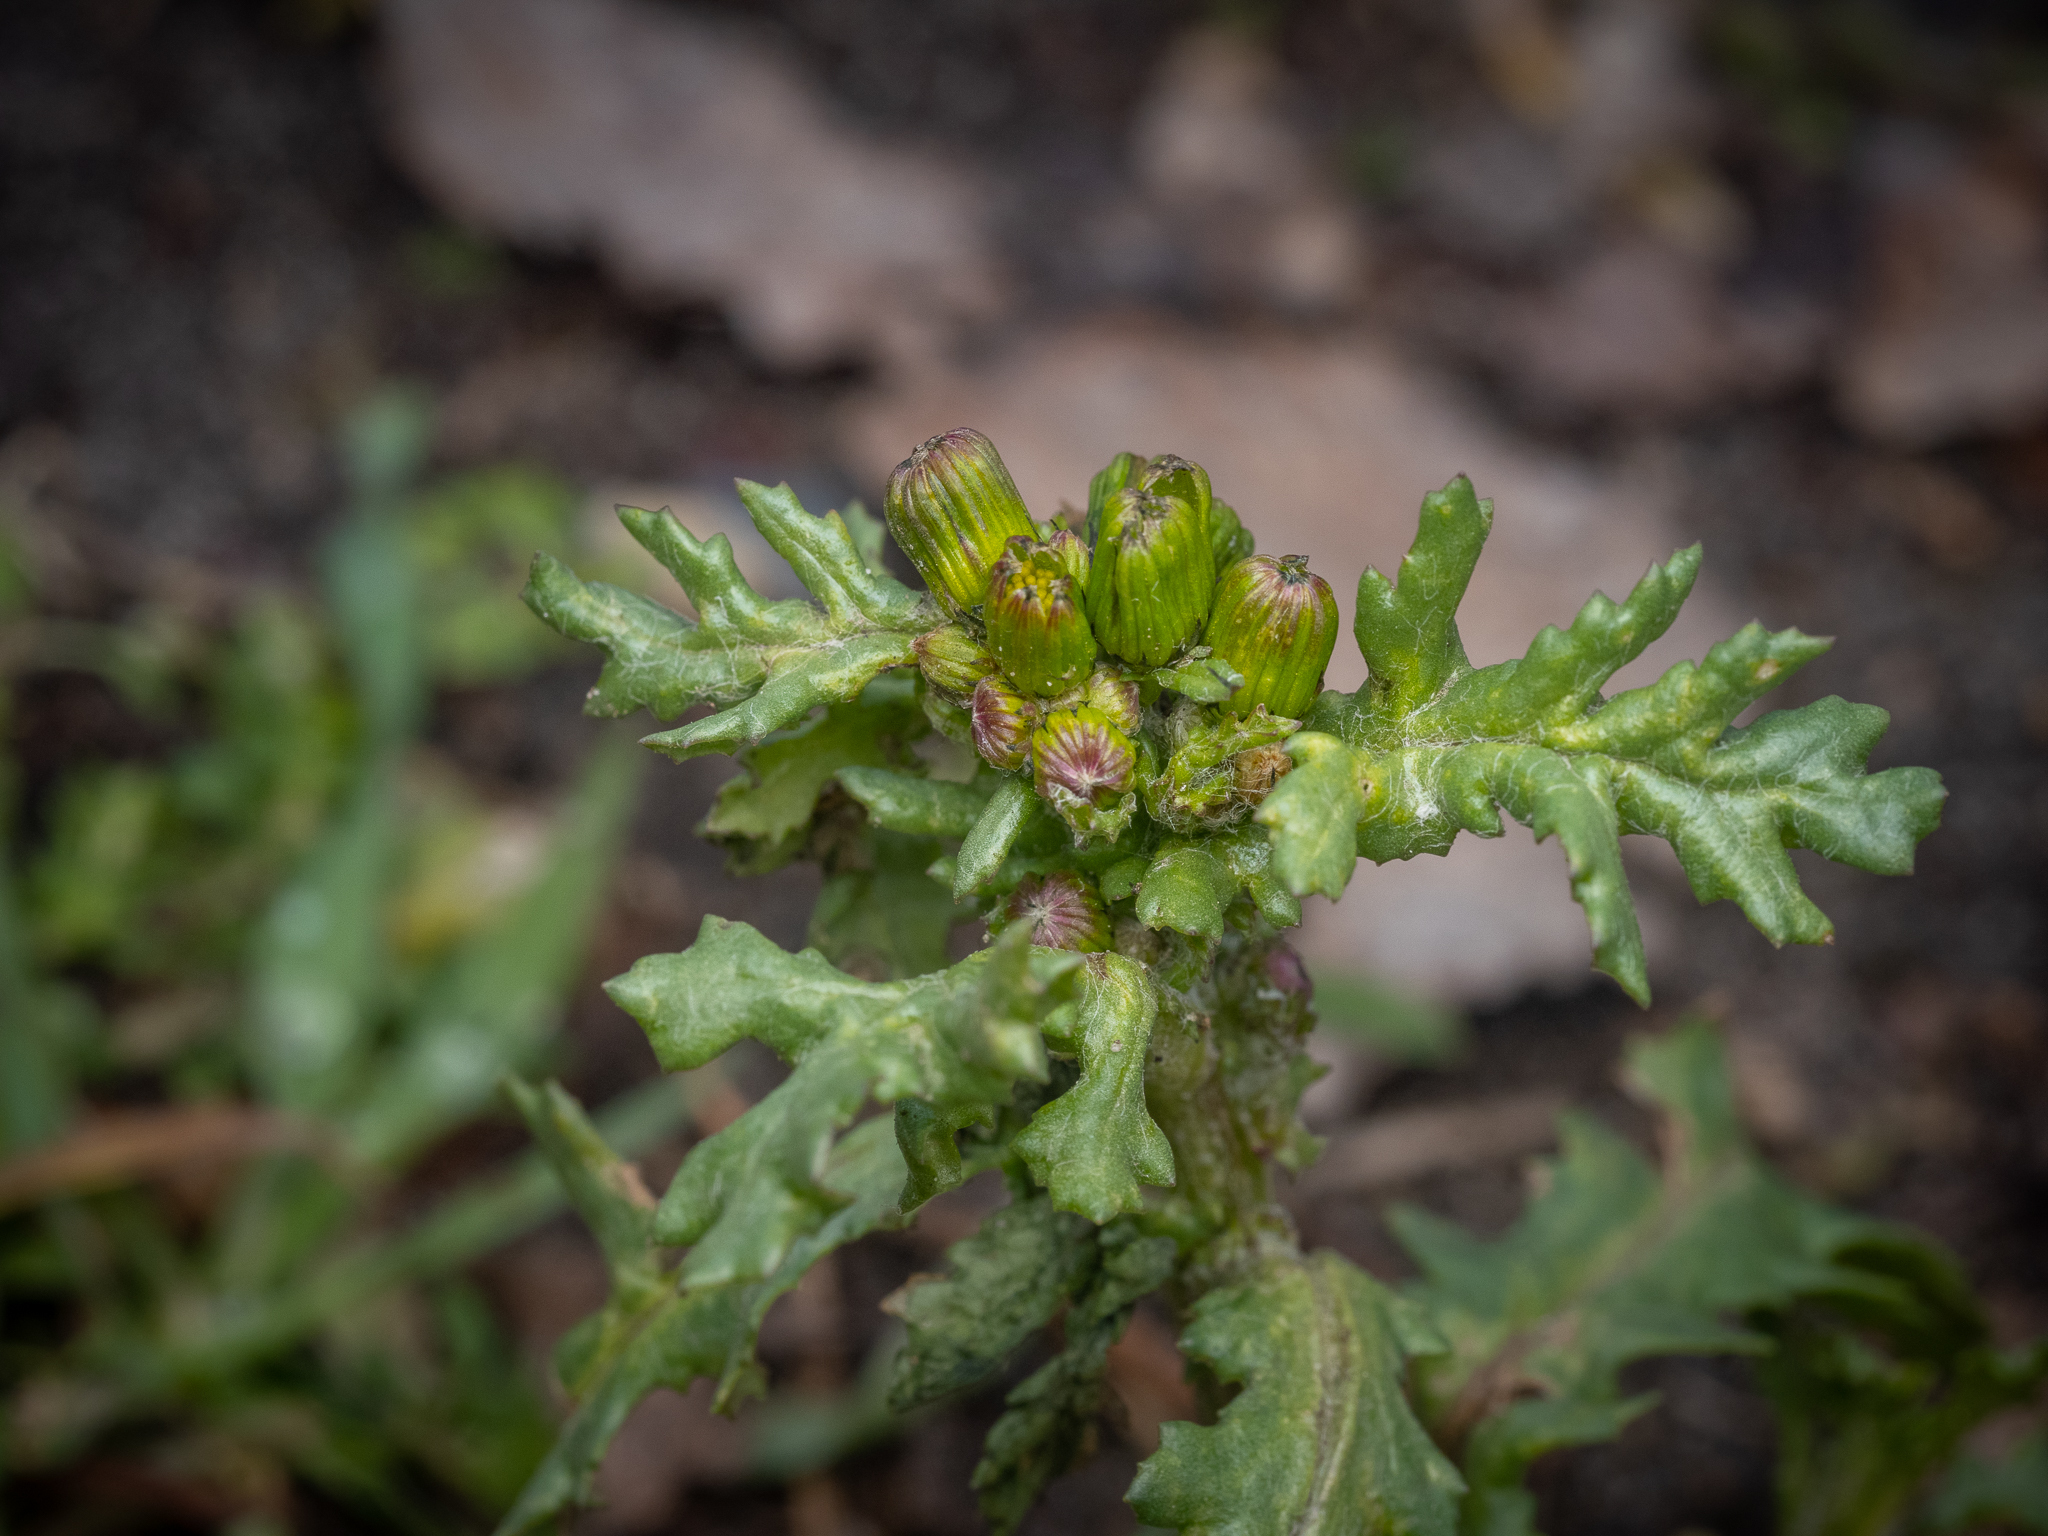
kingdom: Plantae
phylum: Tracheophyta
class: Magnoliopsida
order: Asterales
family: Asteraceae
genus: Senecio
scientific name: Senecio vulgaris
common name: Old-man-in-the-spring
